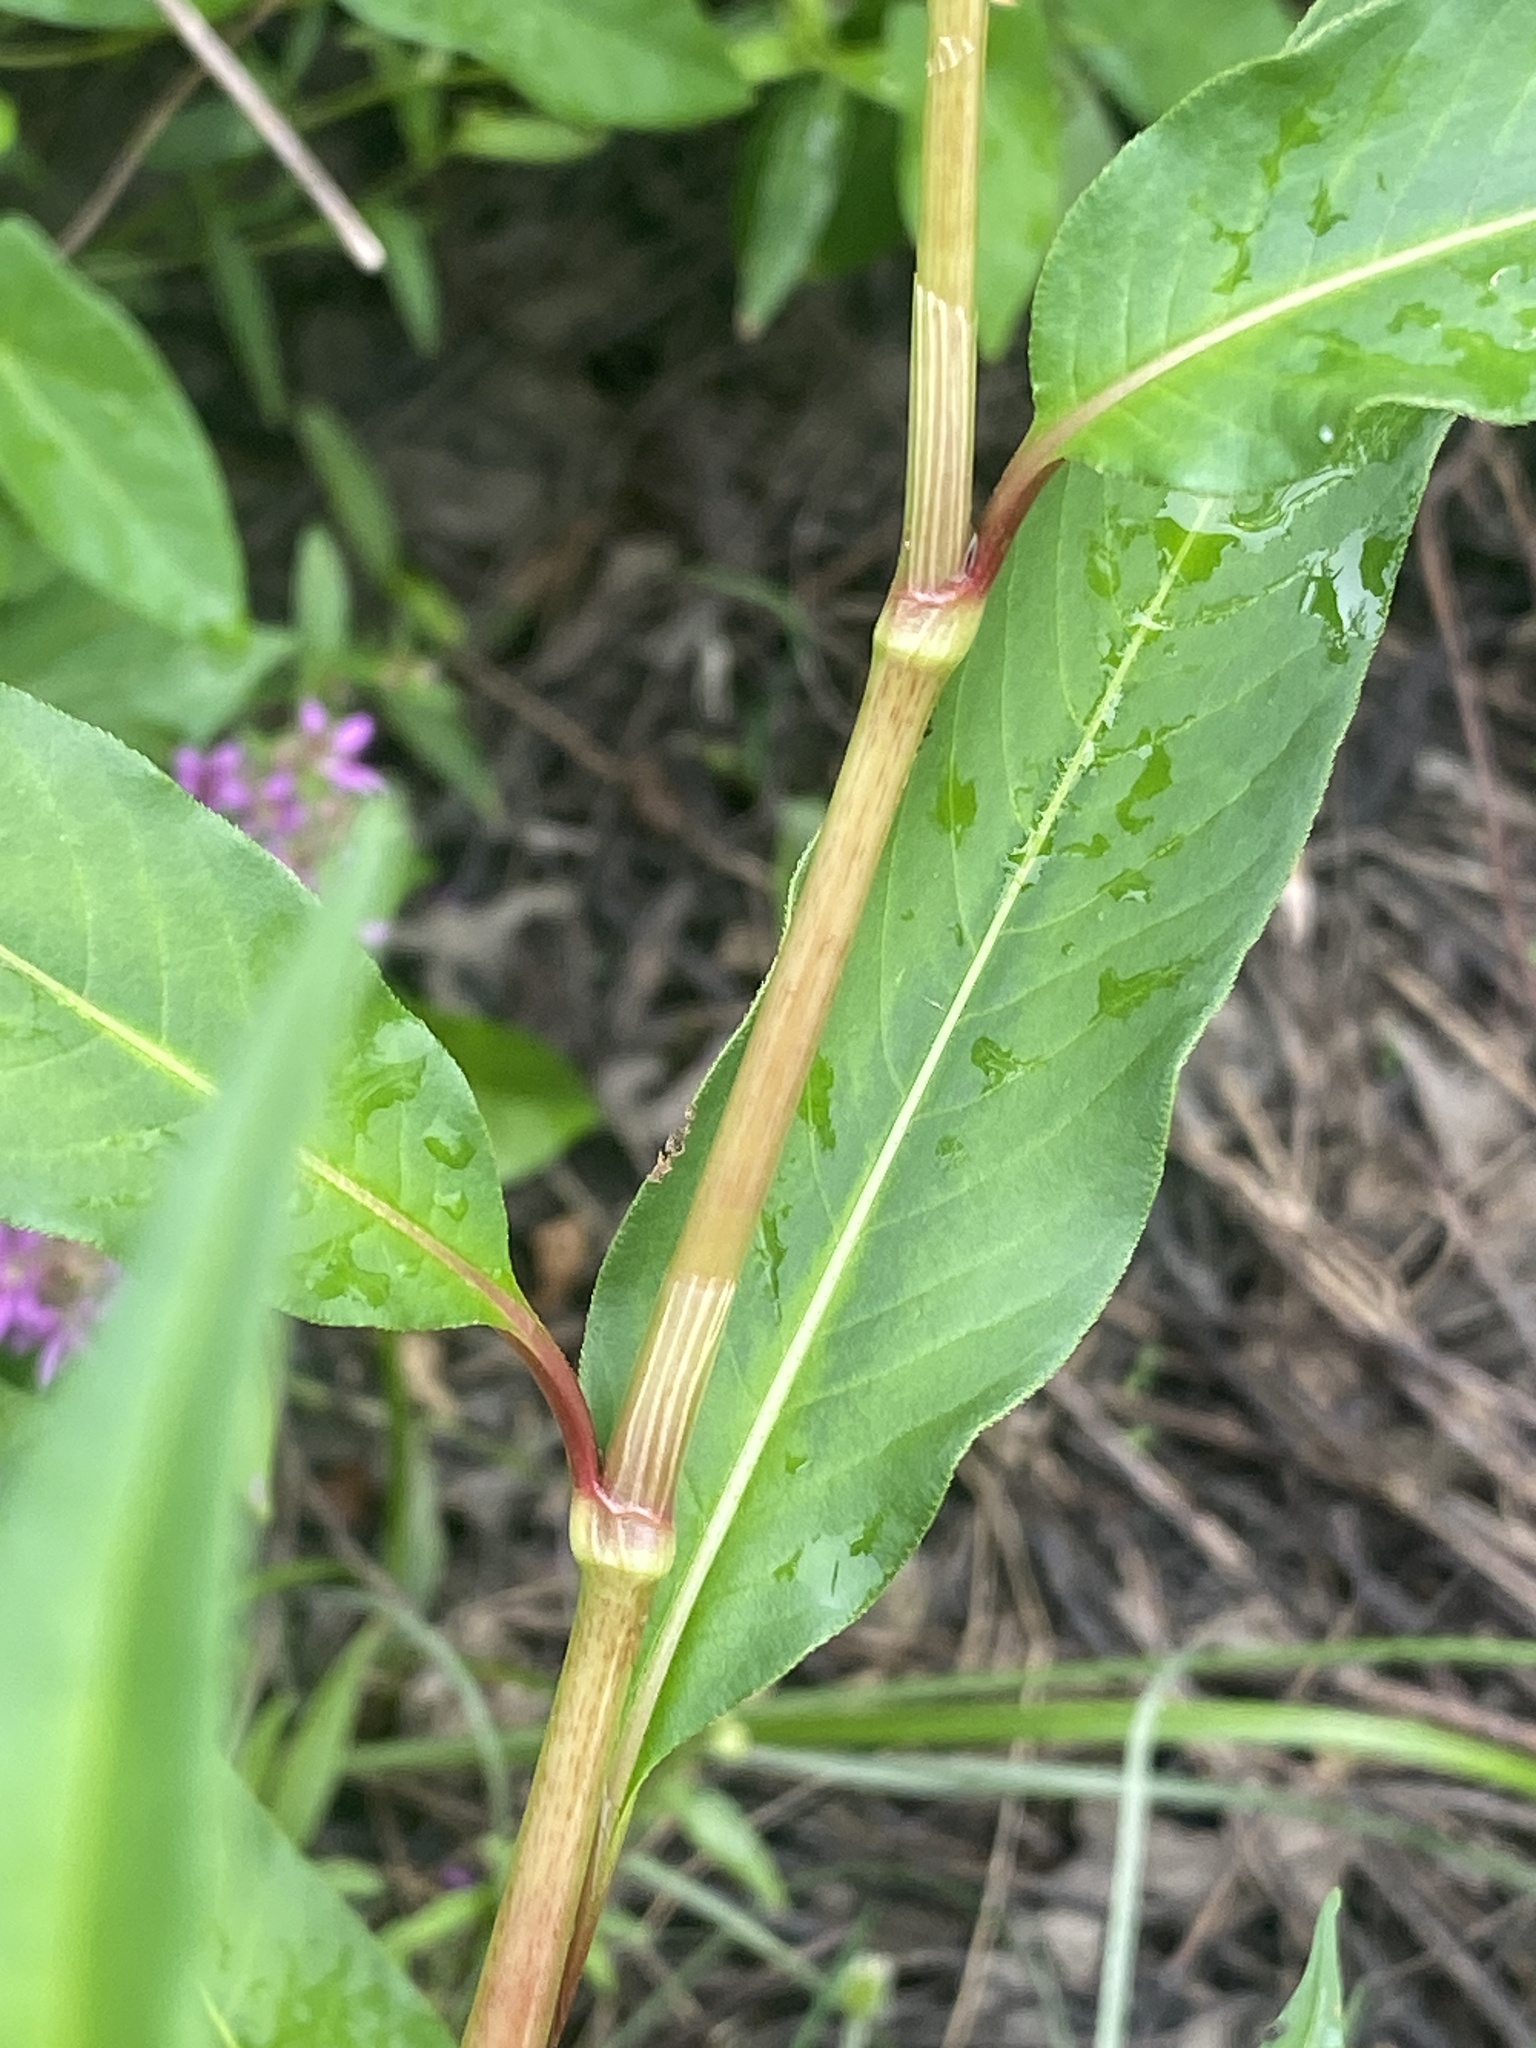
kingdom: Plantae
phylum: Tracheophyta
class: Magnoliopsida
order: Caryophyllales
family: Polygonaceae
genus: Persicaria
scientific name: Persicaria pensylvanica
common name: Pinkweed
